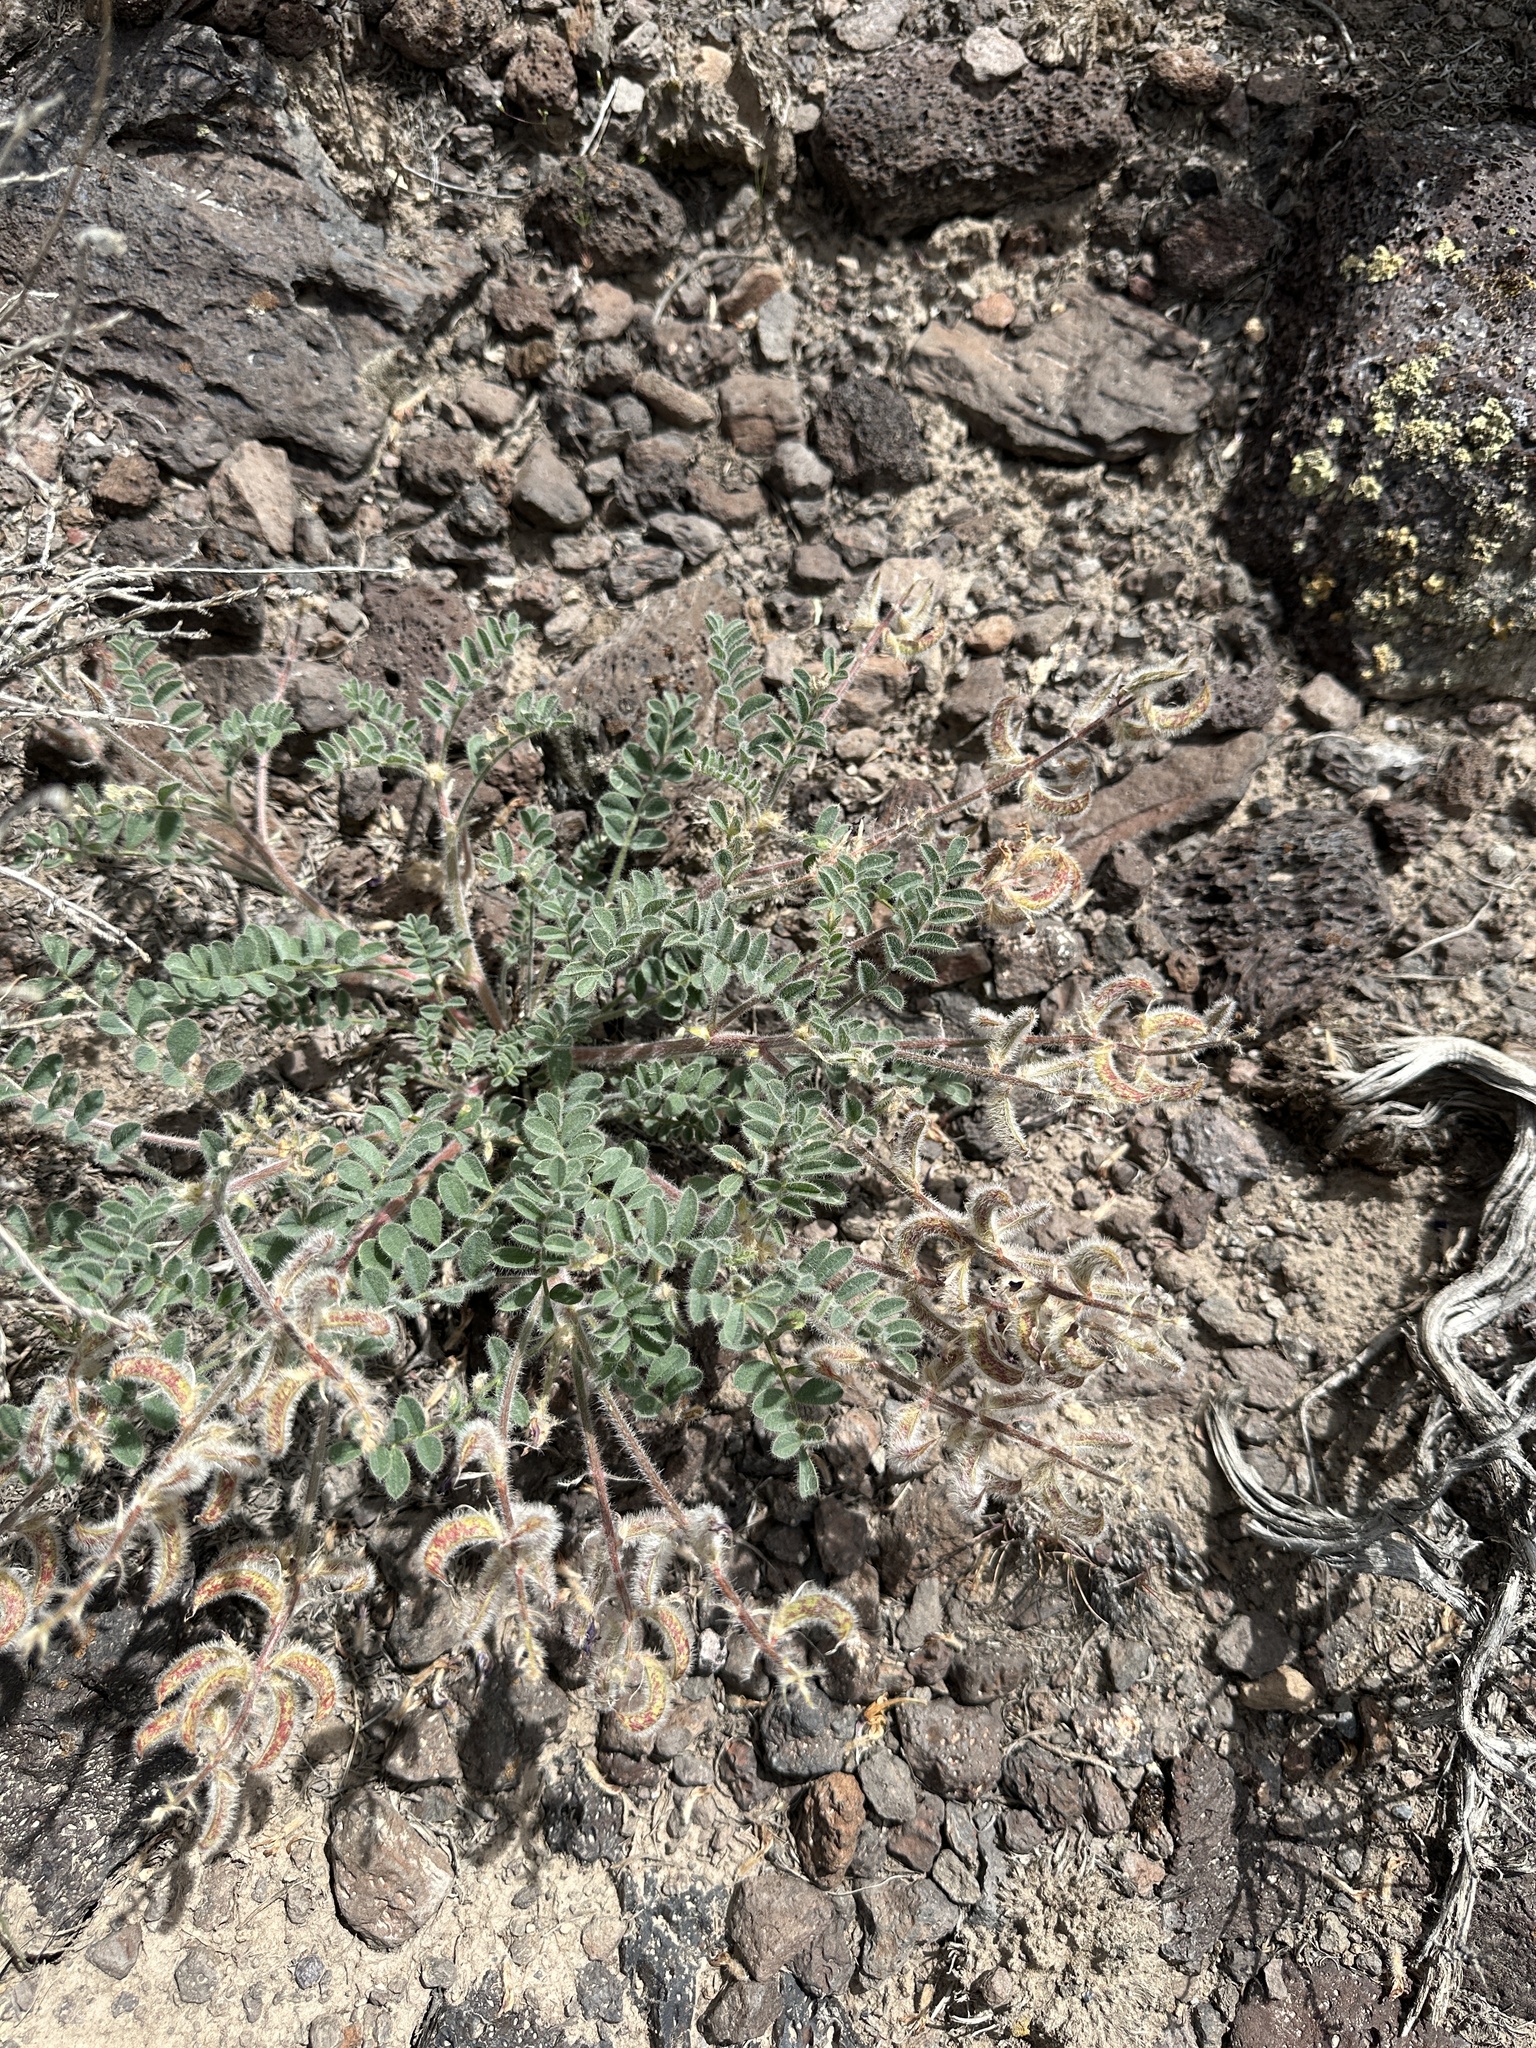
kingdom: Plantae
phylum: Tracheophyta
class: Magnoliopsida
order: Fabales
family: Fabaceae
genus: Astragalus
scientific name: Astragalus malacus
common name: Shaggy milk-vetch
